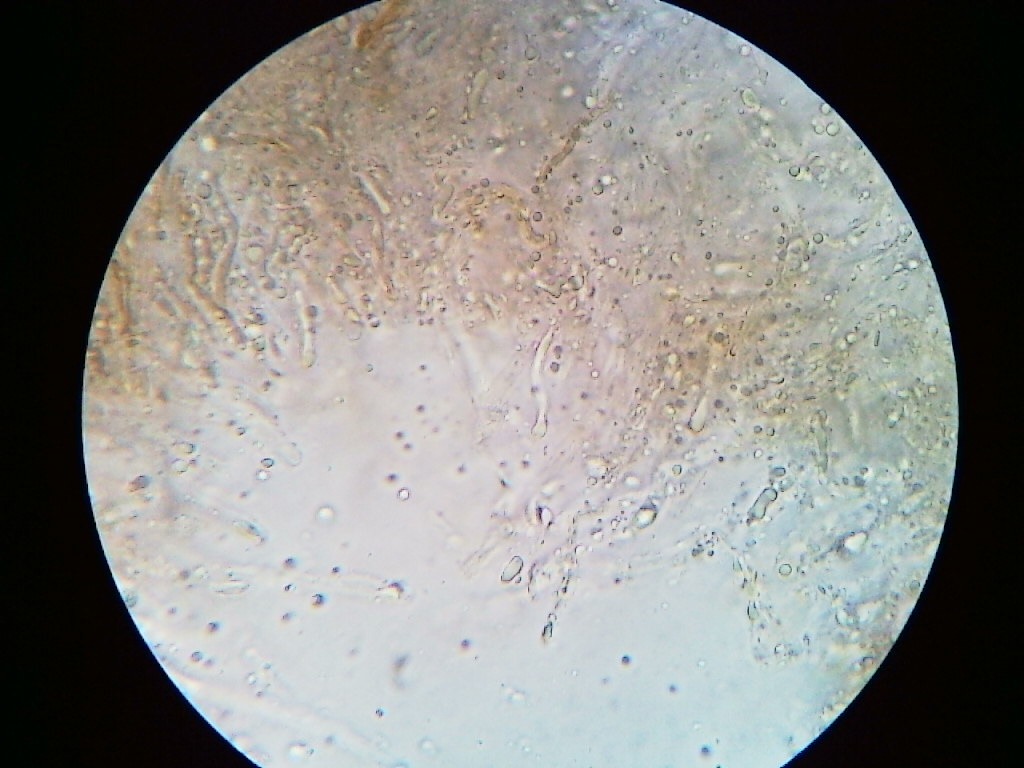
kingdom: Fungi
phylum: Basidiomycota
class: Agaricomycetes
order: Corticiales
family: Punctulariaceae
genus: Punctularia
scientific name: Punctularia strigosozonata
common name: White-rot fungus
